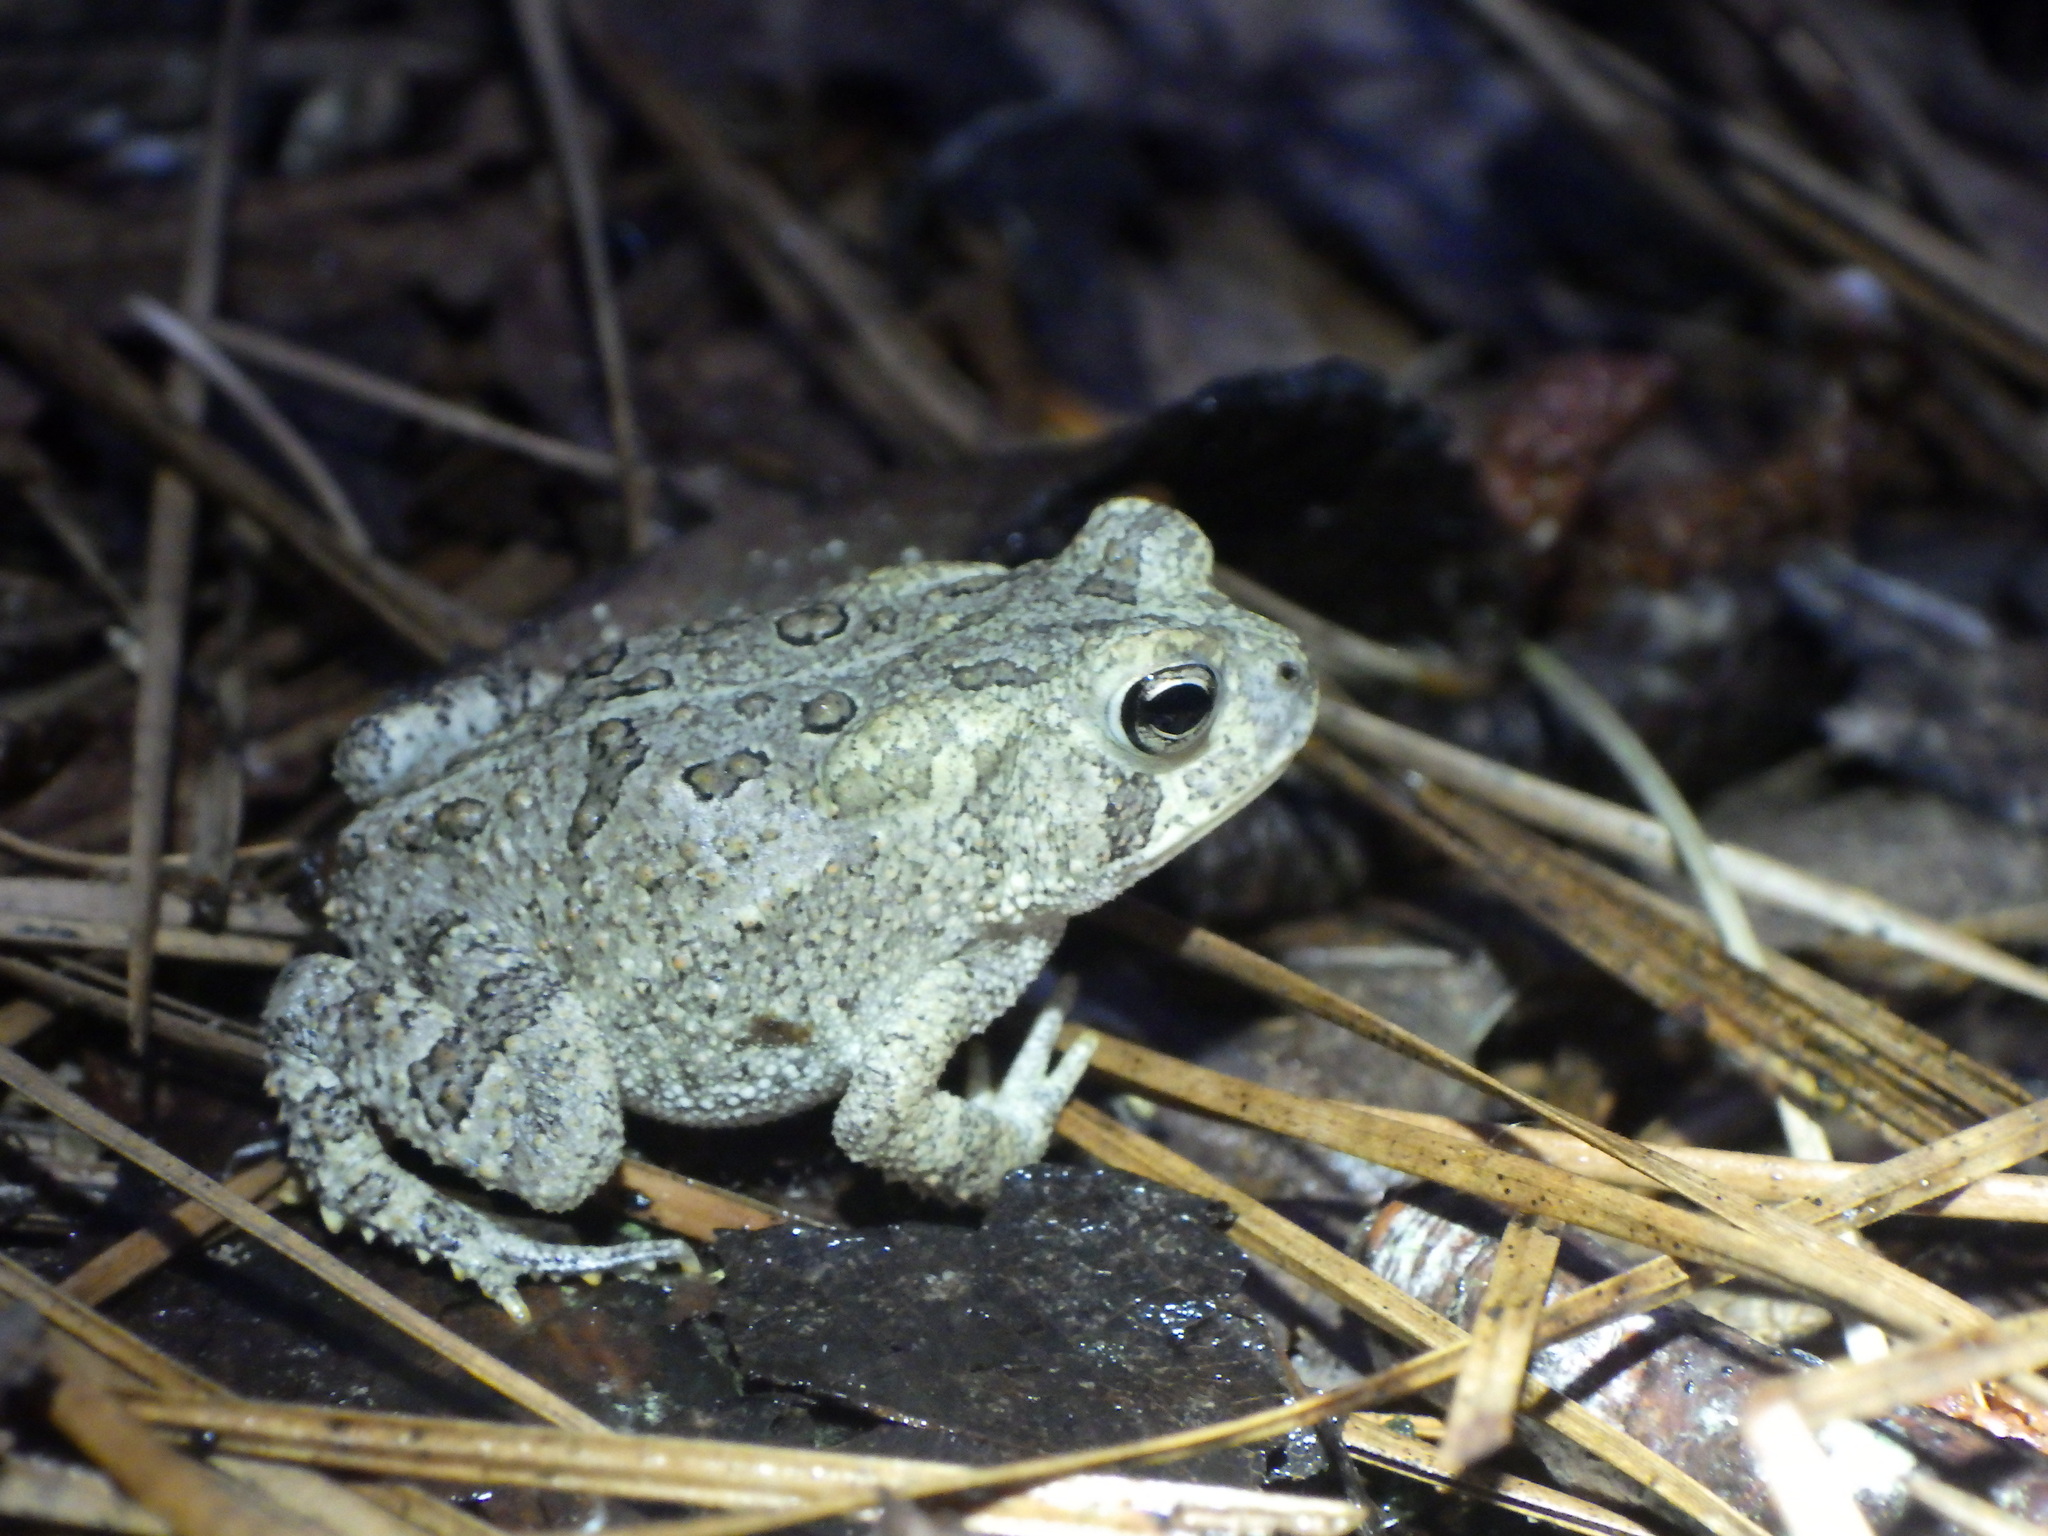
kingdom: Animalia
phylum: Chordata
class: Amphibia
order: Anura
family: Bufonidae
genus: Anaxyrus
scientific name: Anaxyrus terrestris
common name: Southern toad
